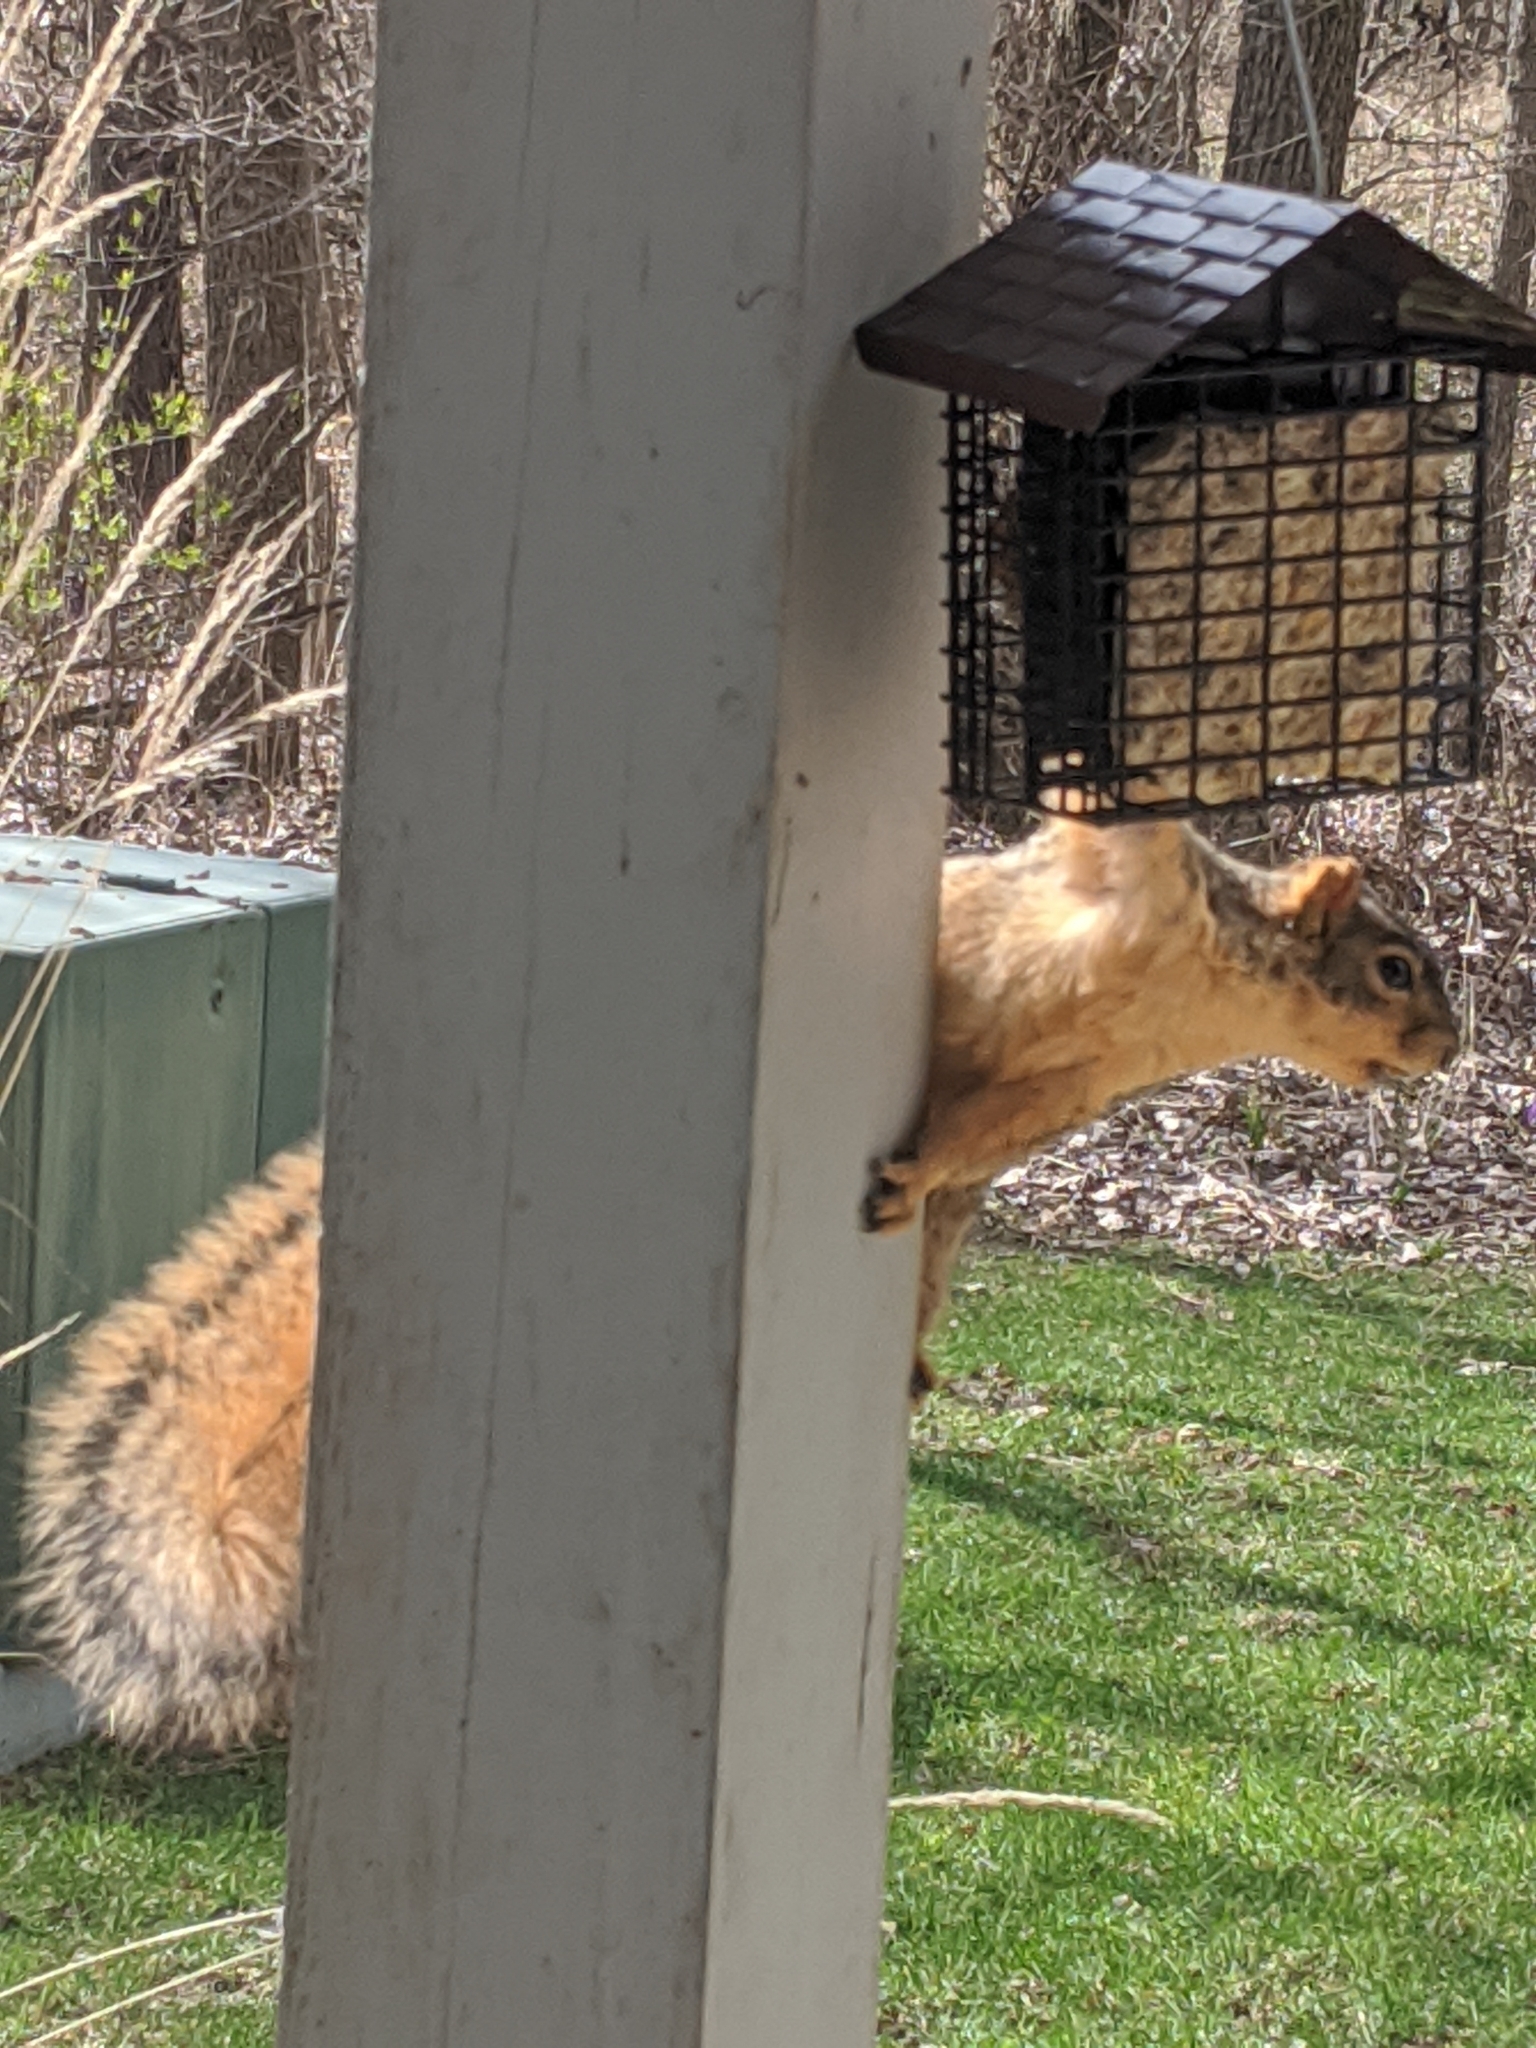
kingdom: Animalia
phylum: Chordata
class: Mammalia
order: Rodentia
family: Sciuridae
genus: Sciurus
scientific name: Sciurus niger
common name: Fox squirrel
